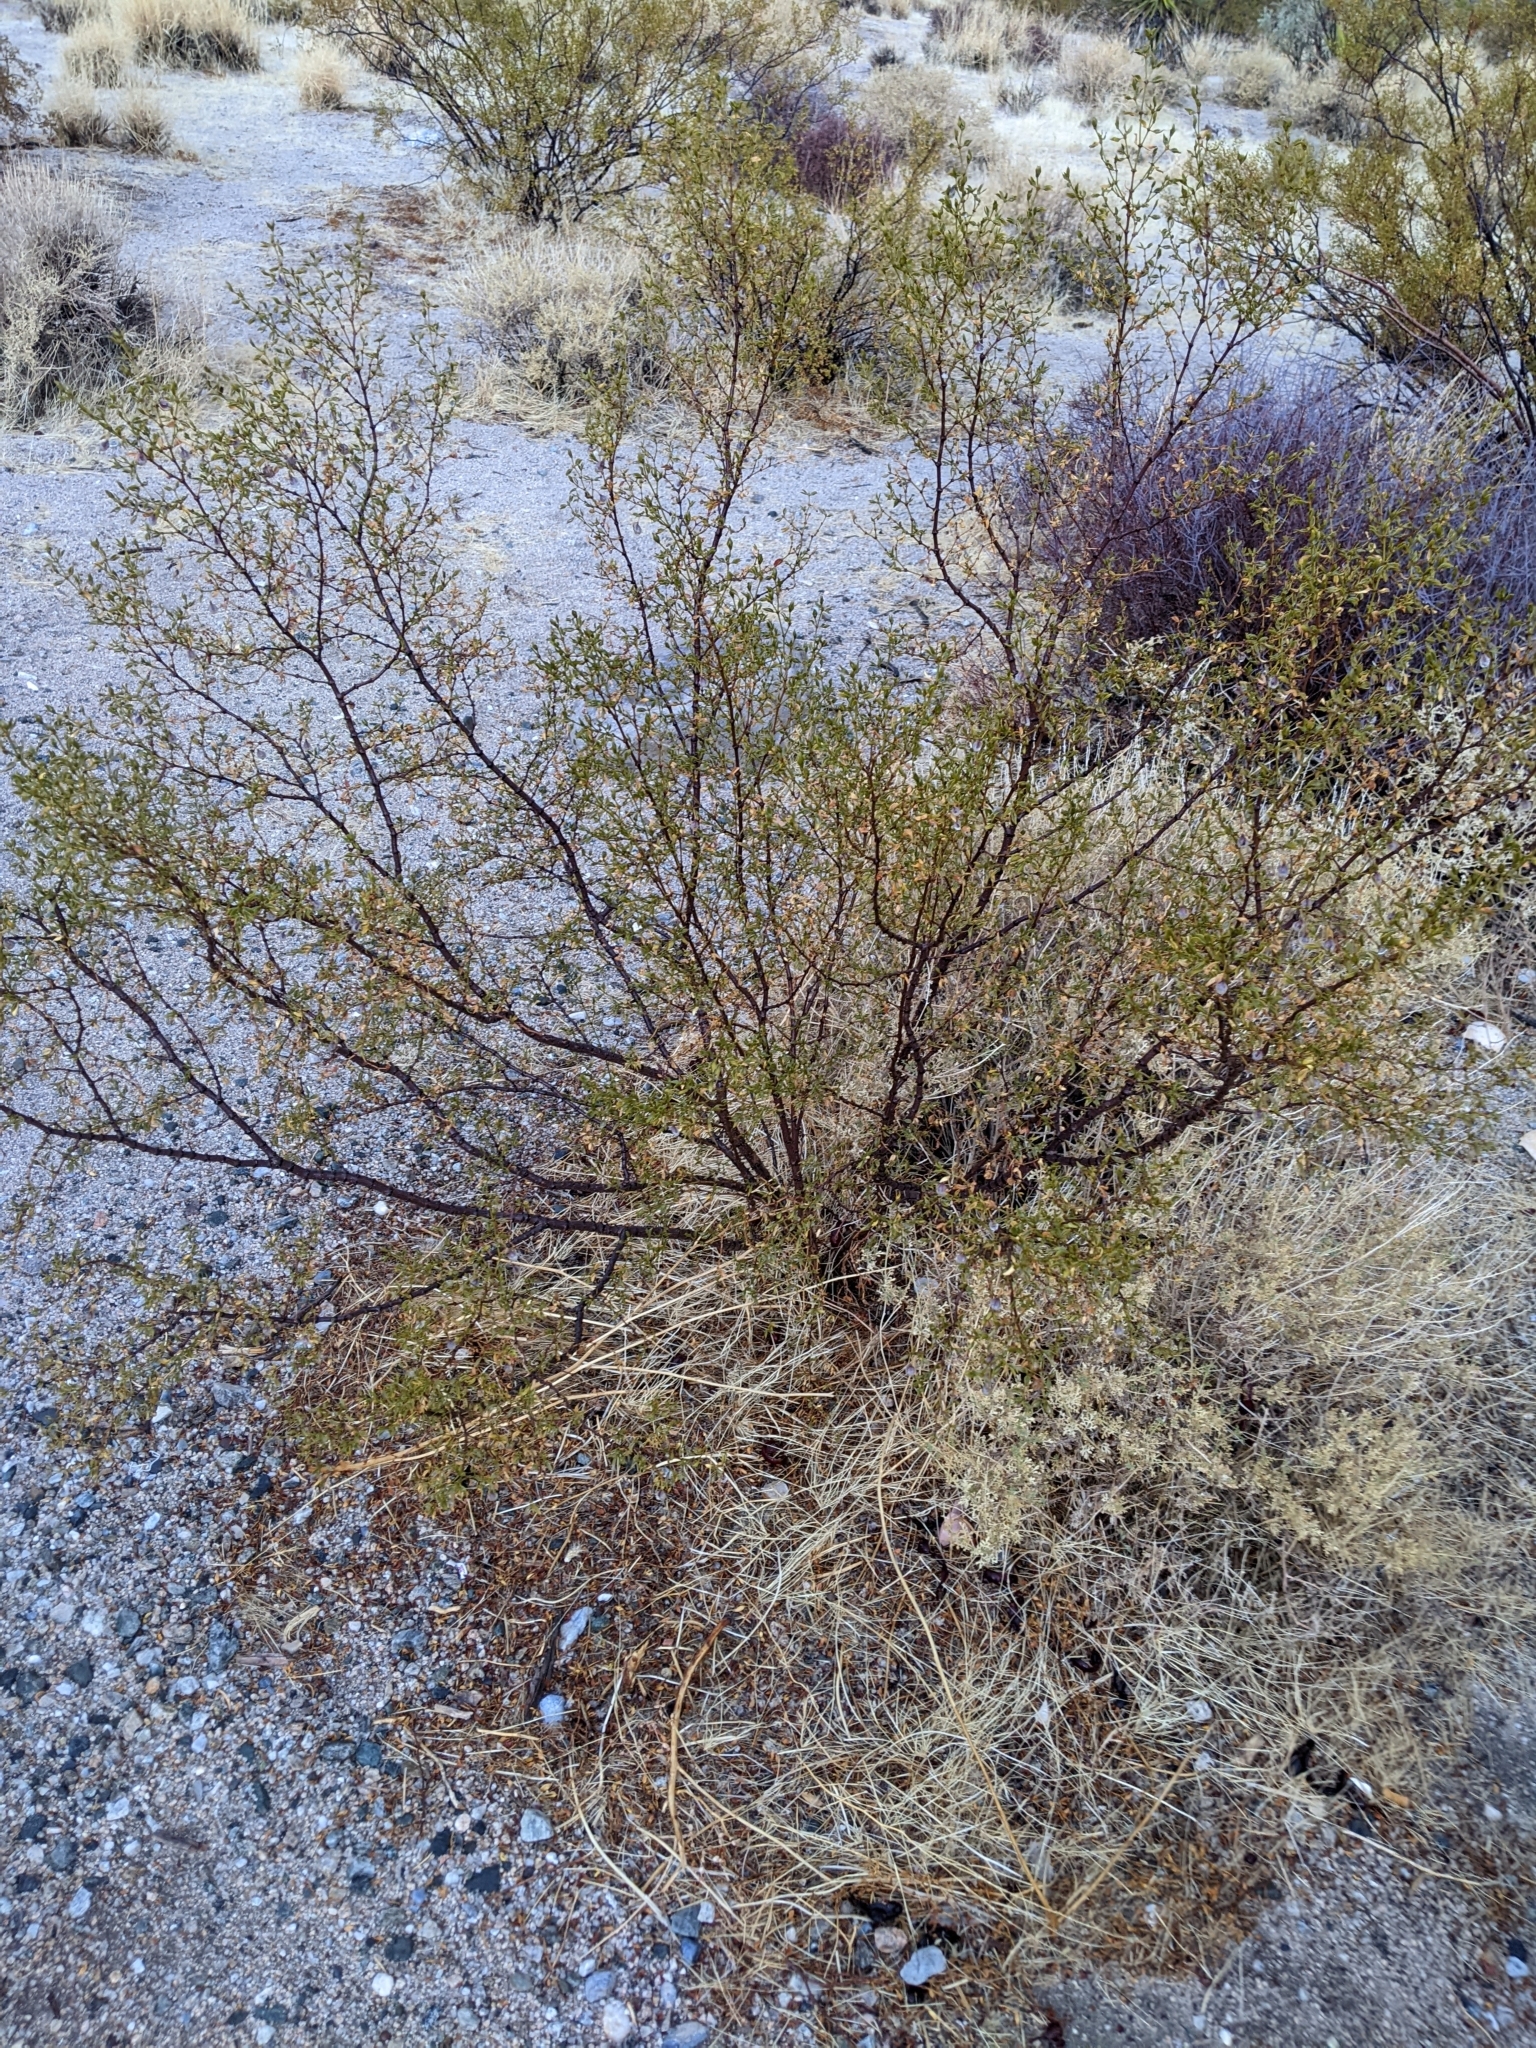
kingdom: Plantae
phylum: Tracheophyta
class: Magnoliopsida
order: Zygophyllales
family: Zygophyllaceae
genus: Larrea
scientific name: Larrea tridentata
